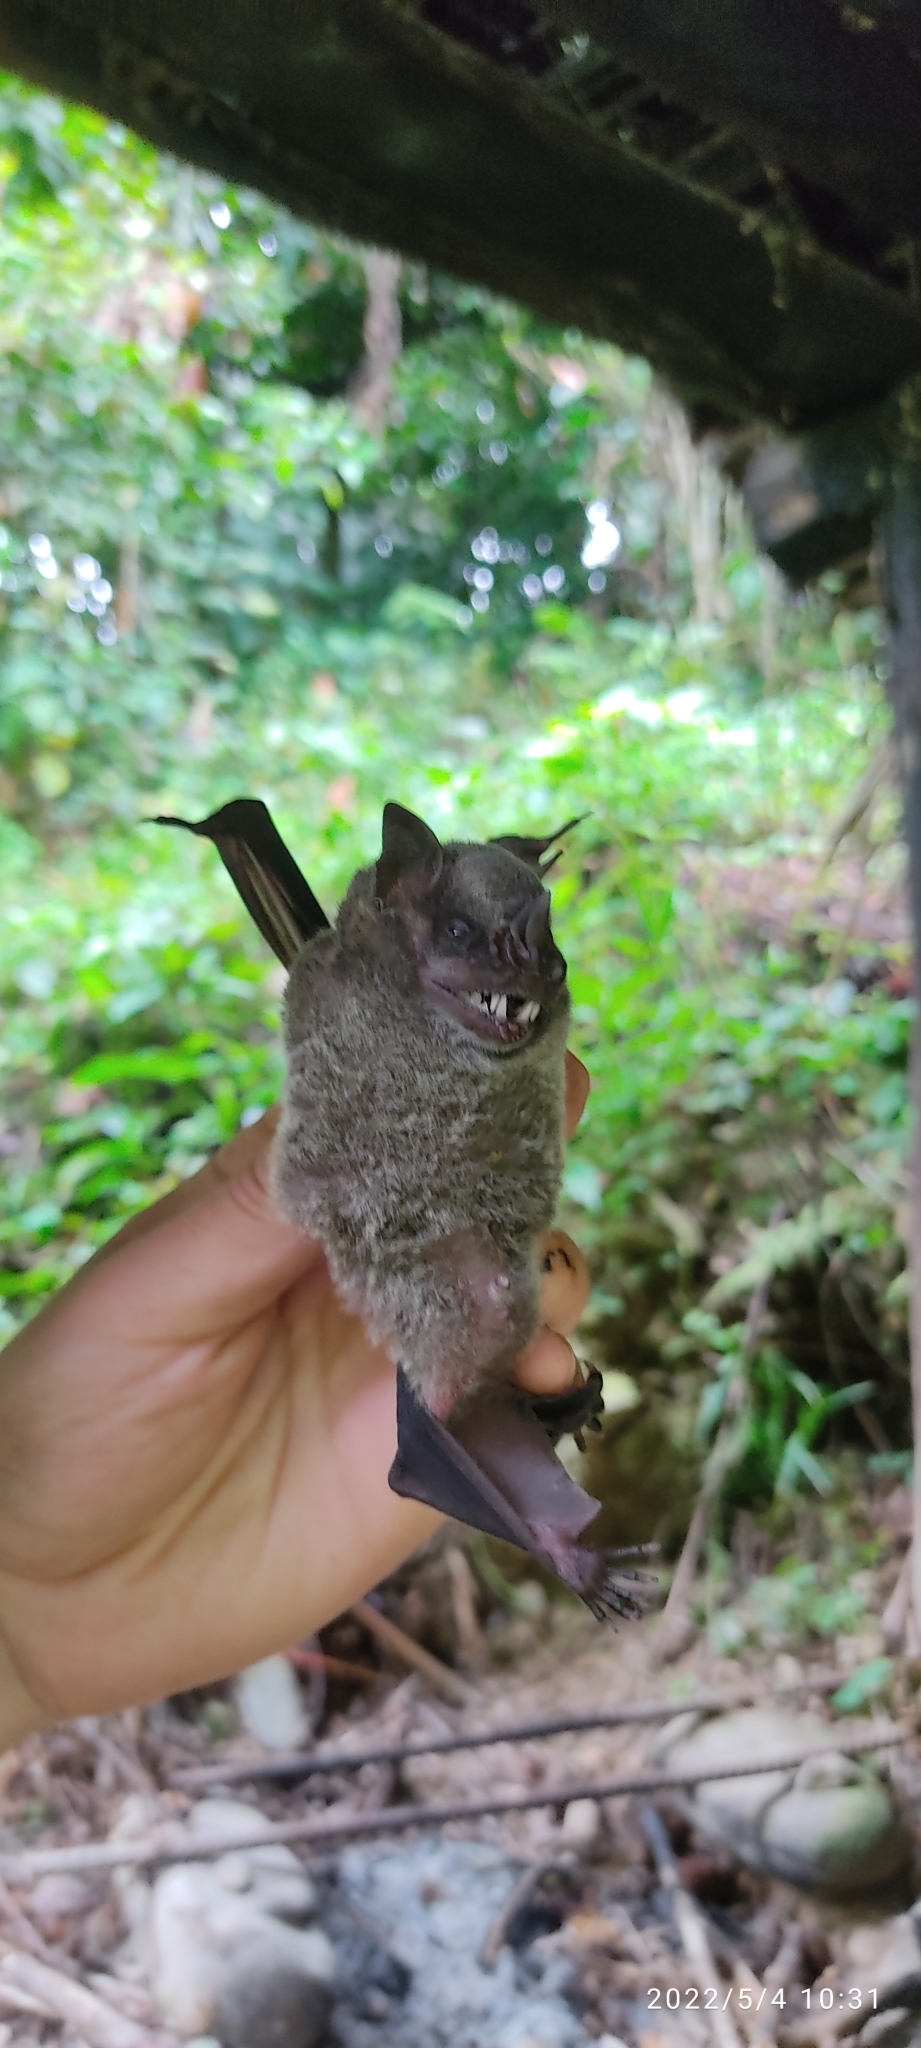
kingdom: Animalia
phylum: Chordata
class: Mammalia
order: Chiroptera
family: Phyllostomidae
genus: Artibeus
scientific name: Artibeus planirostris
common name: Flat-faced fruit-eating bat
